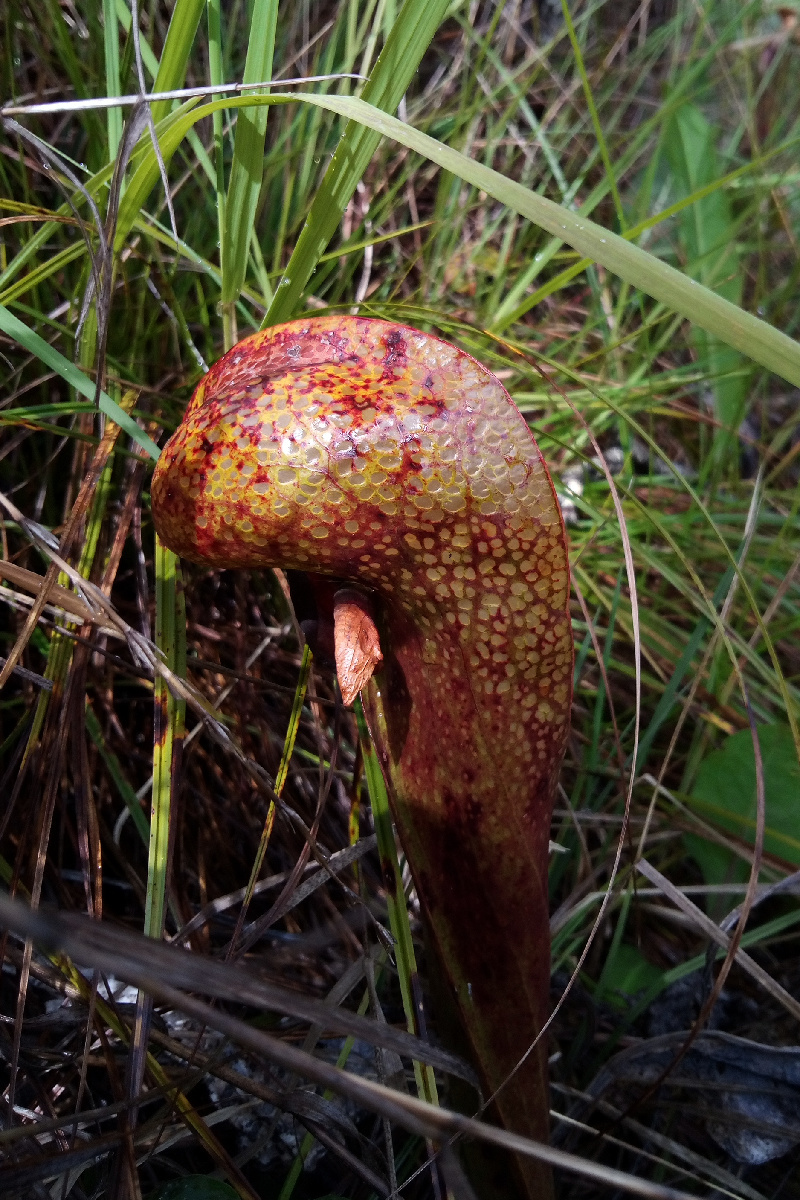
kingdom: Plantae
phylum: Tracheophyta
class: Magnoliopsida
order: Ericales
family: Sarraceniaceae
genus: Darlingtonia
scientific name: Darlingtonia californica
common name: California pitcher plant
